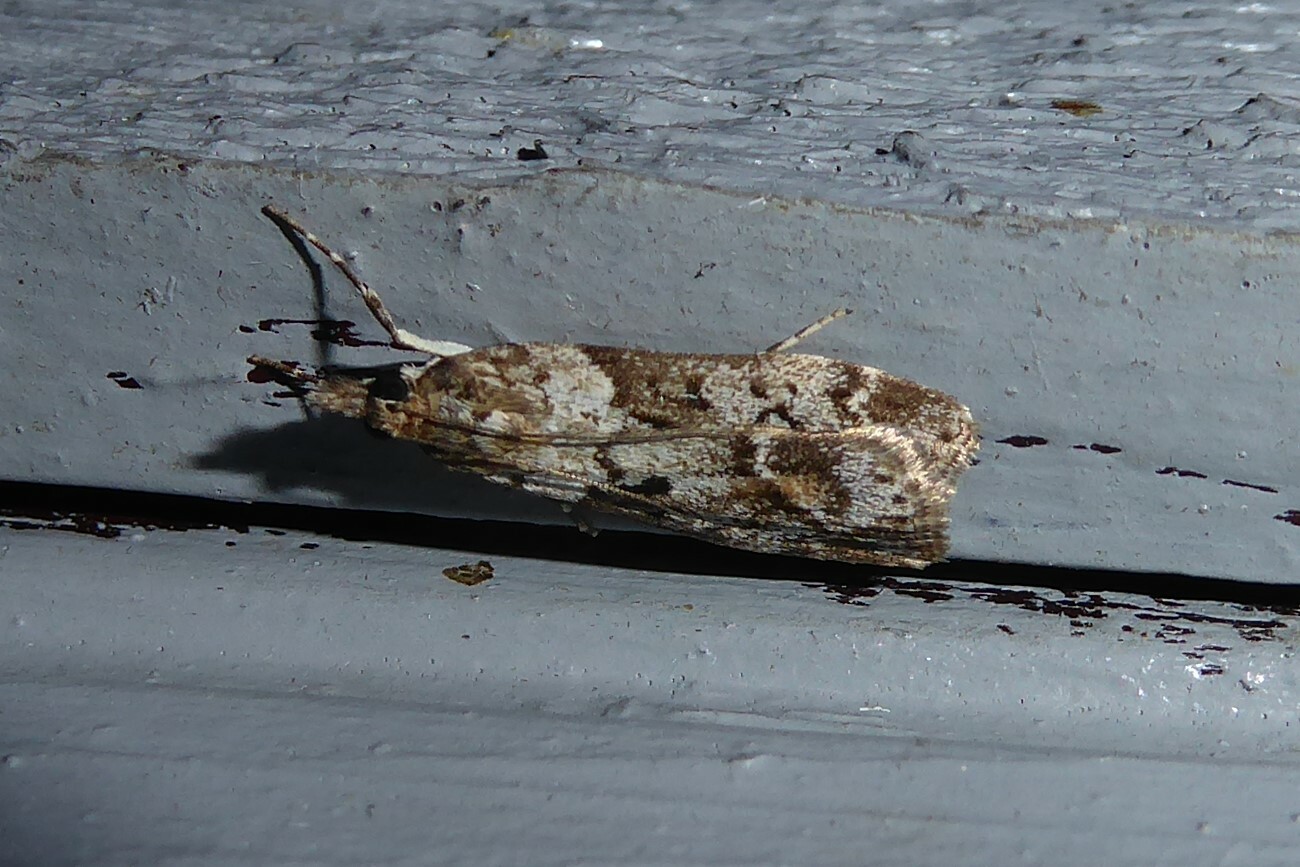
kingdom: Animalia
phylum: Arthropoda
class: Insecta
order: Lepidoptera
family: Crambidae
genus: Eudonia
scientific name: Eudonia submarginalis
